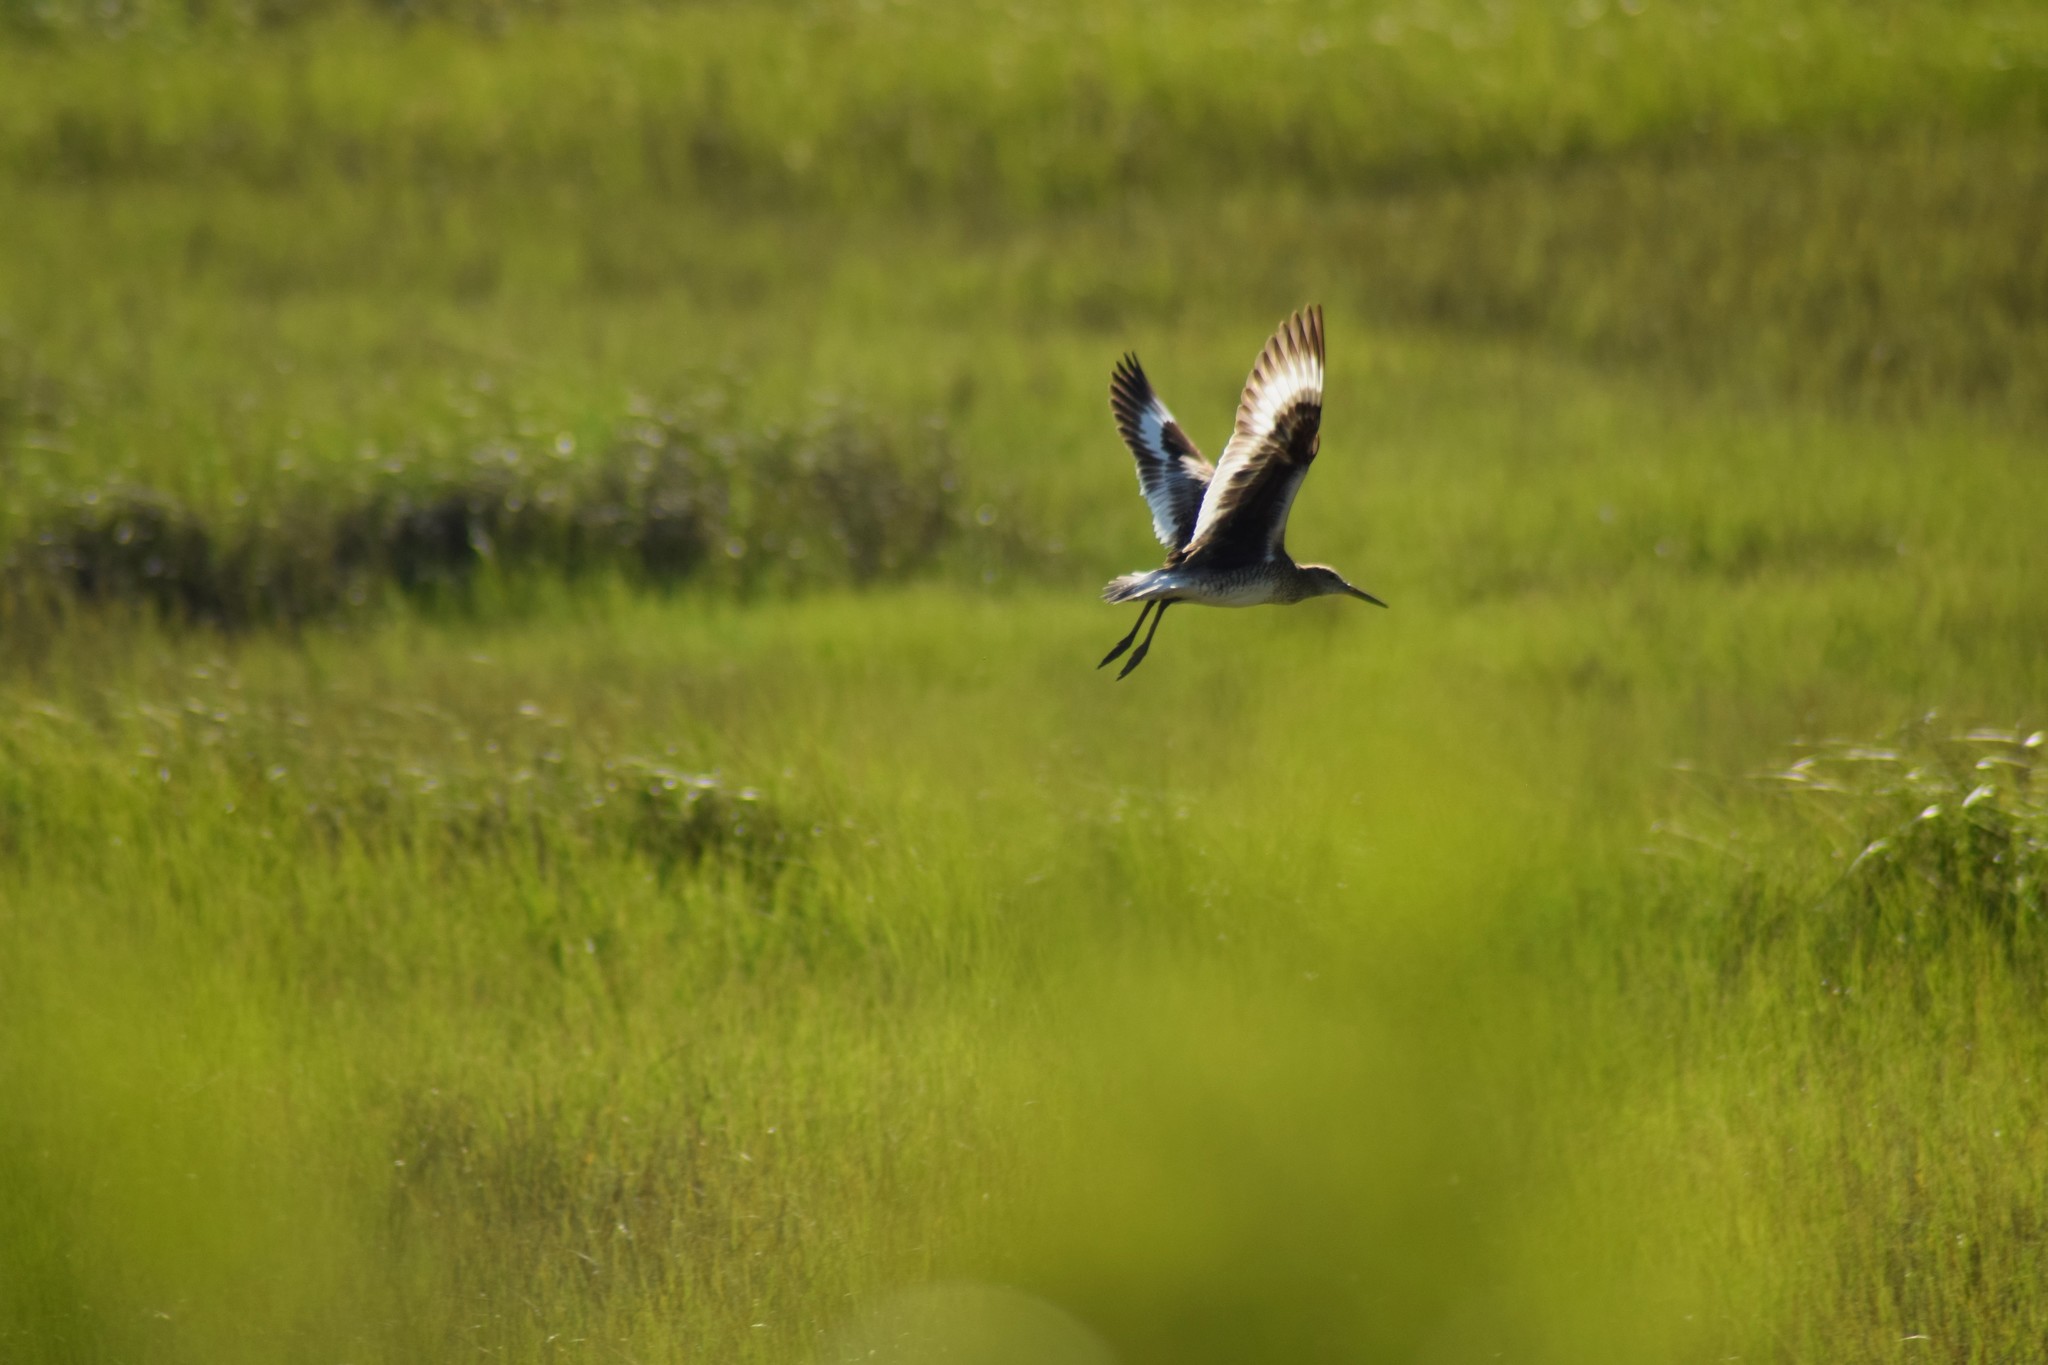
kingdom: Animalia
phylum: Chordata
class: Aves
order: Charadriiformes
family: Scolopacidae
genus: Tringa
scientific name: Tringa semipalmata
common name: Willet
